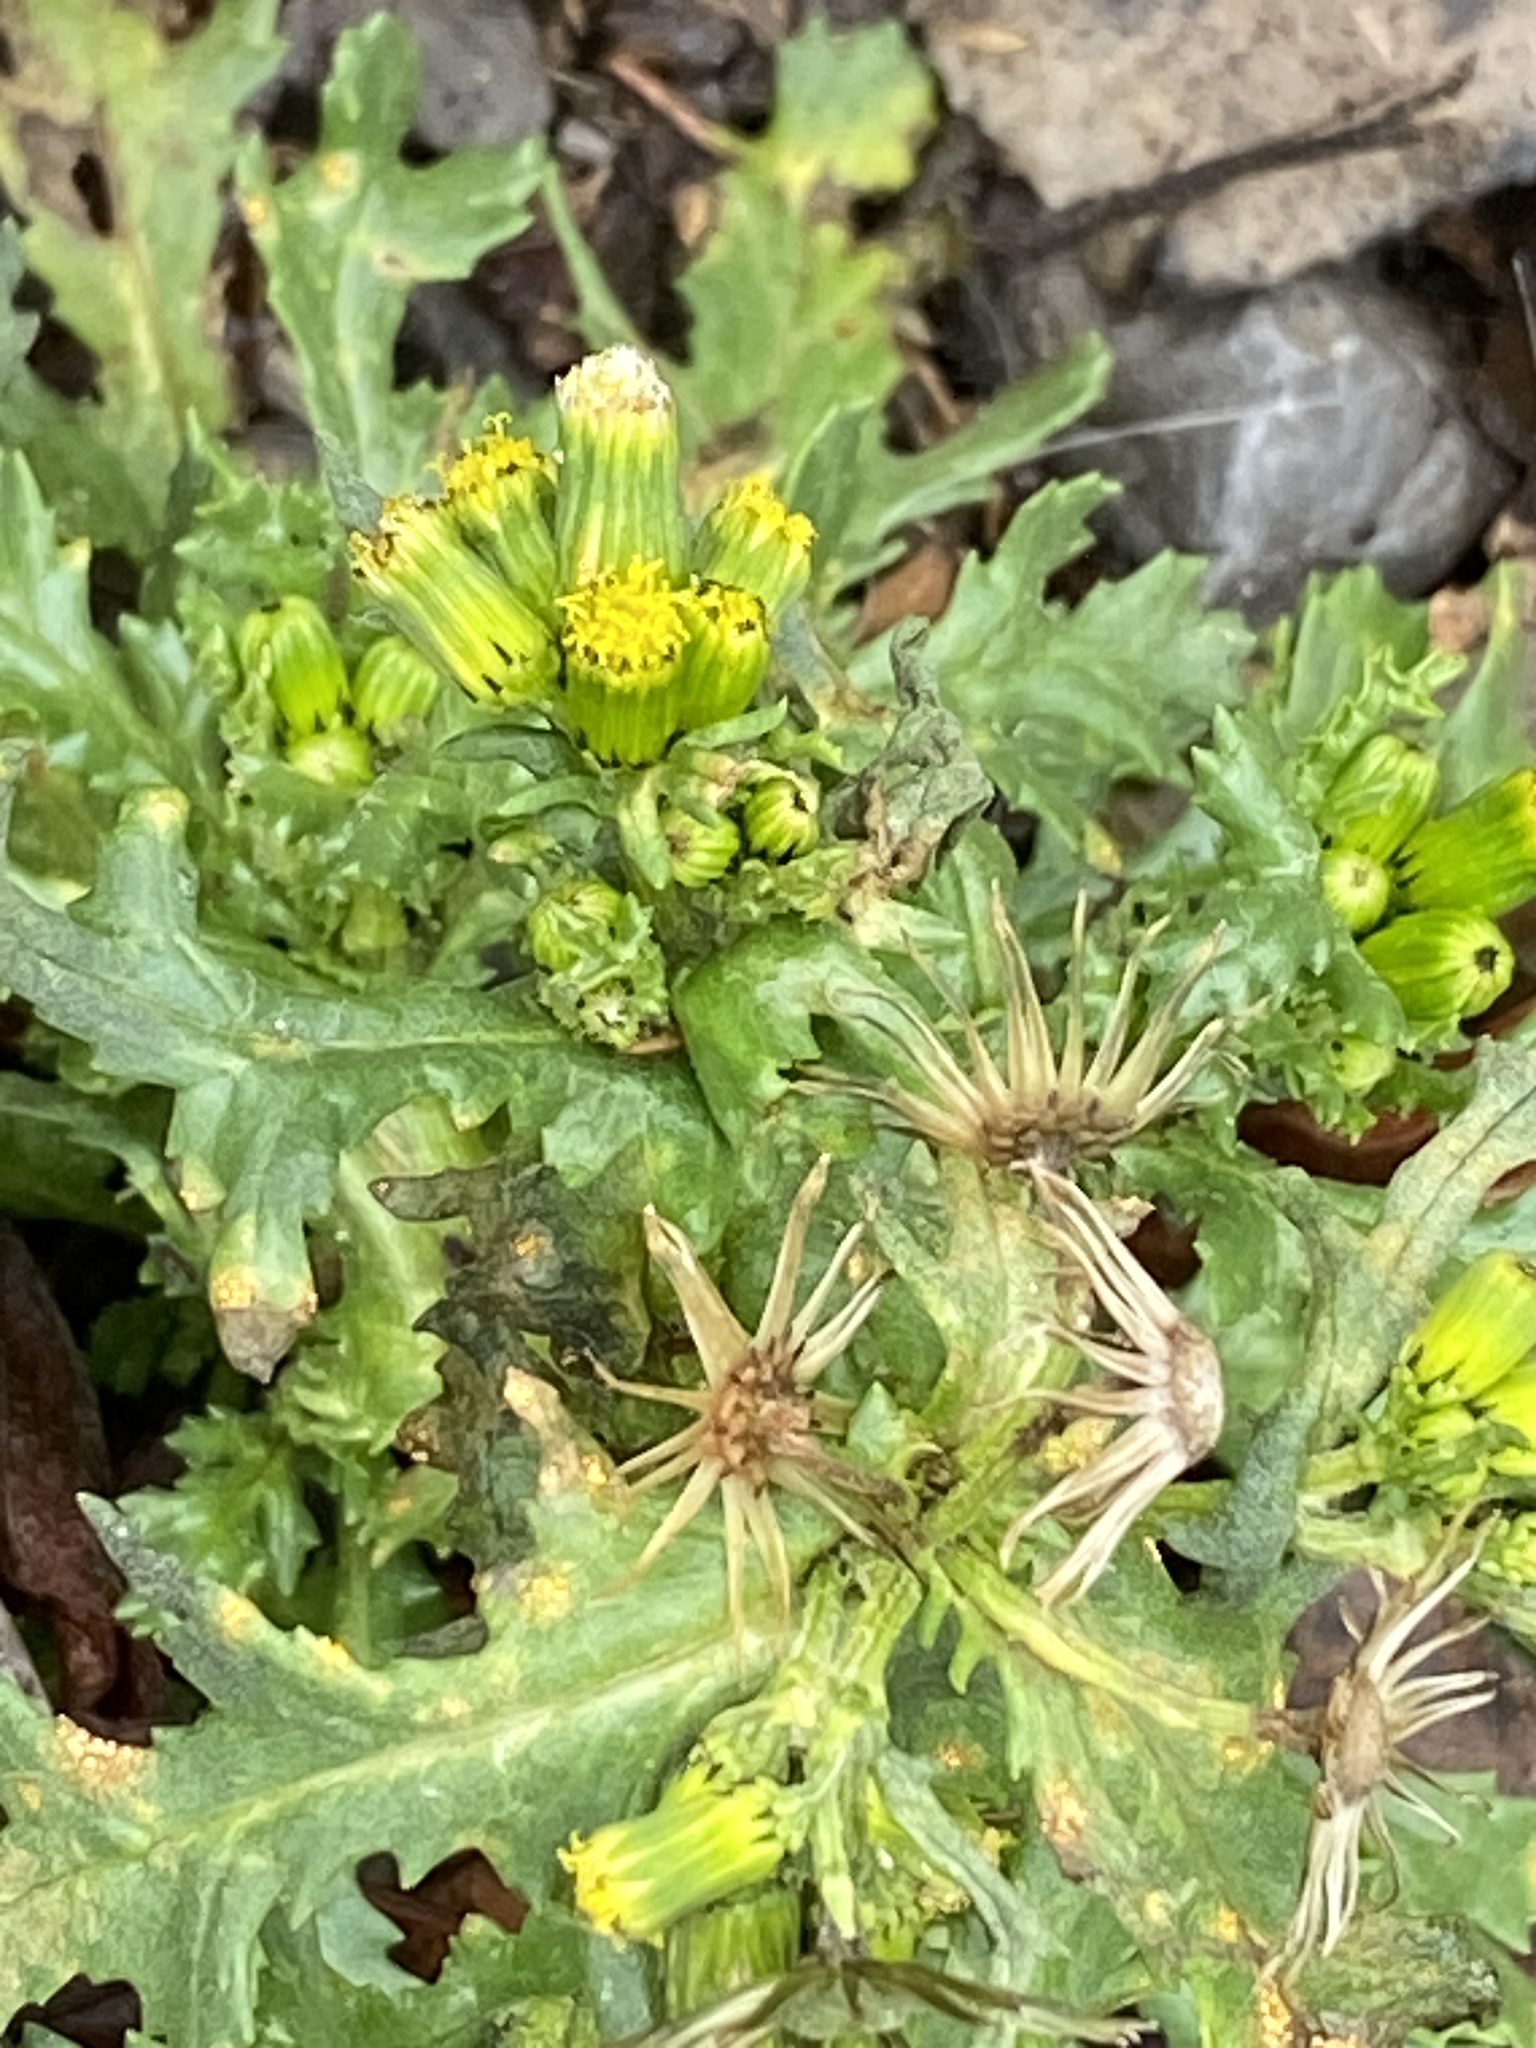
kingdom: Plantae
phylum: Tracheophyta
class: Magnoliopsida
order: Asterales
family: Asteraceae
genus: Senecio
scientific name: Senecio vulgaris
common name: Old-man-in-the-spring
